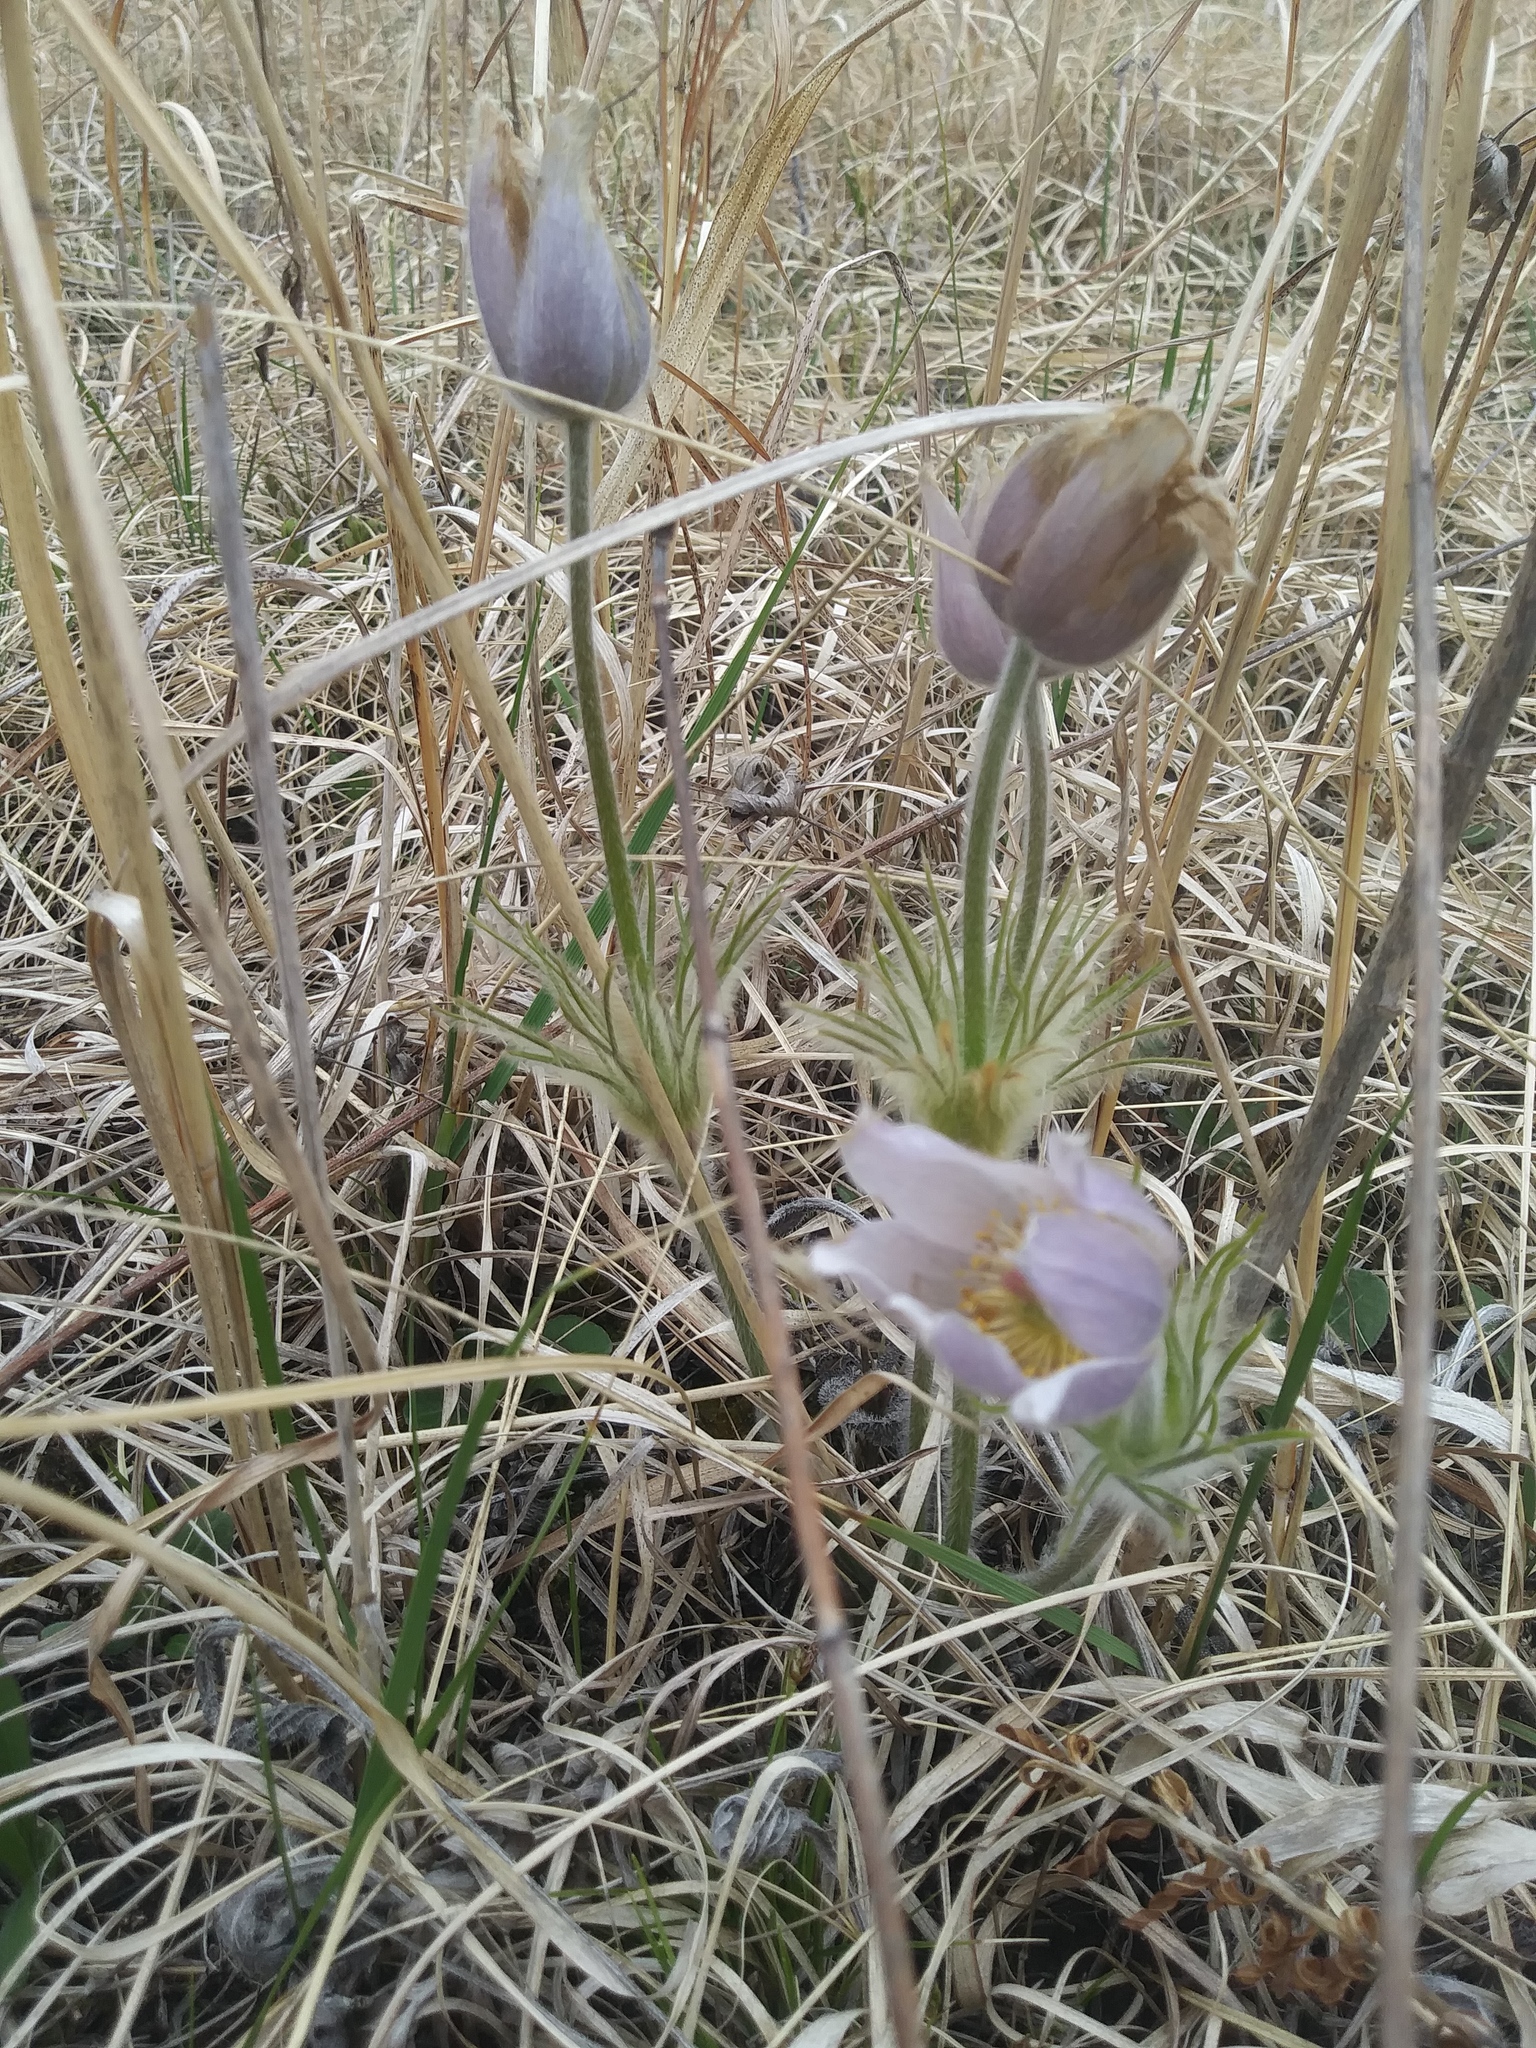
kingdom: Plantae
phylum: Tracheophyta
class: Magnoliopsida
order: Ranunculales
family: Ranunculaceae
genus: Pulsatilla
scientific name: Pulsatilla nuttalliana
